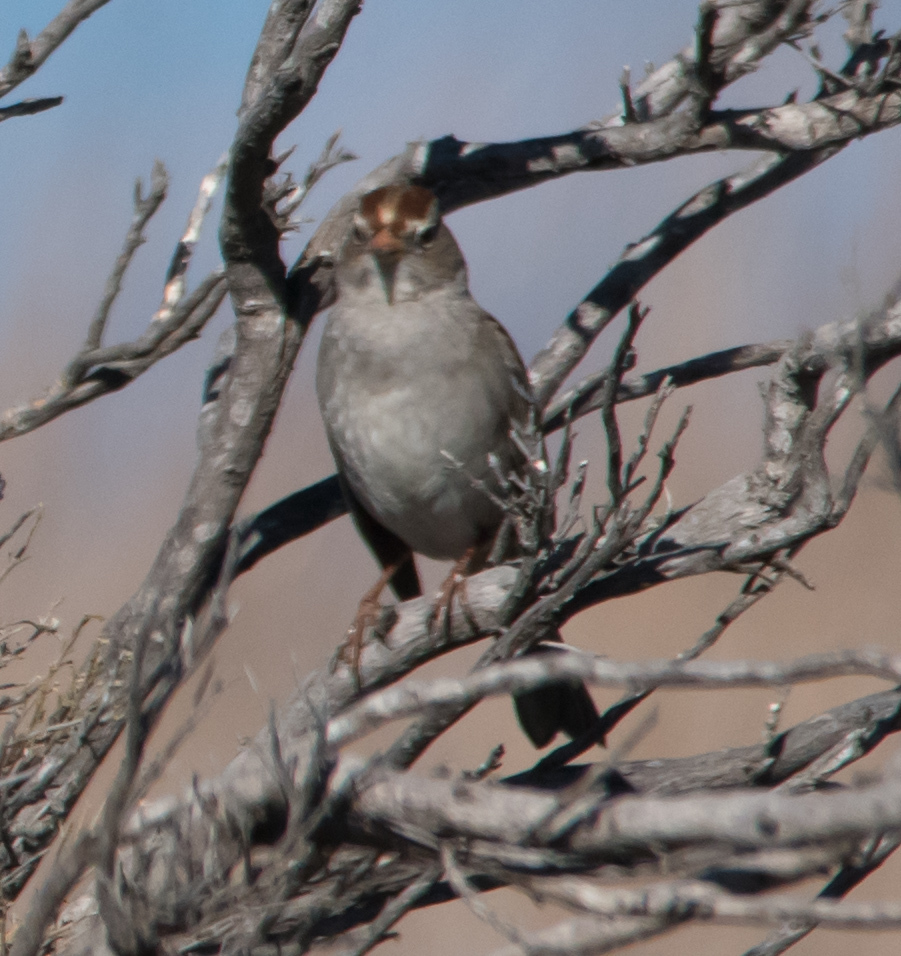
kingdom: Animalia
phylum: Chordata
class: Aves
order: Passeriformes
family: Passerellidae
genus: Zonotrichia
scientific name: Zonotrichia leucophrys
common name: White-crowned sparrow
